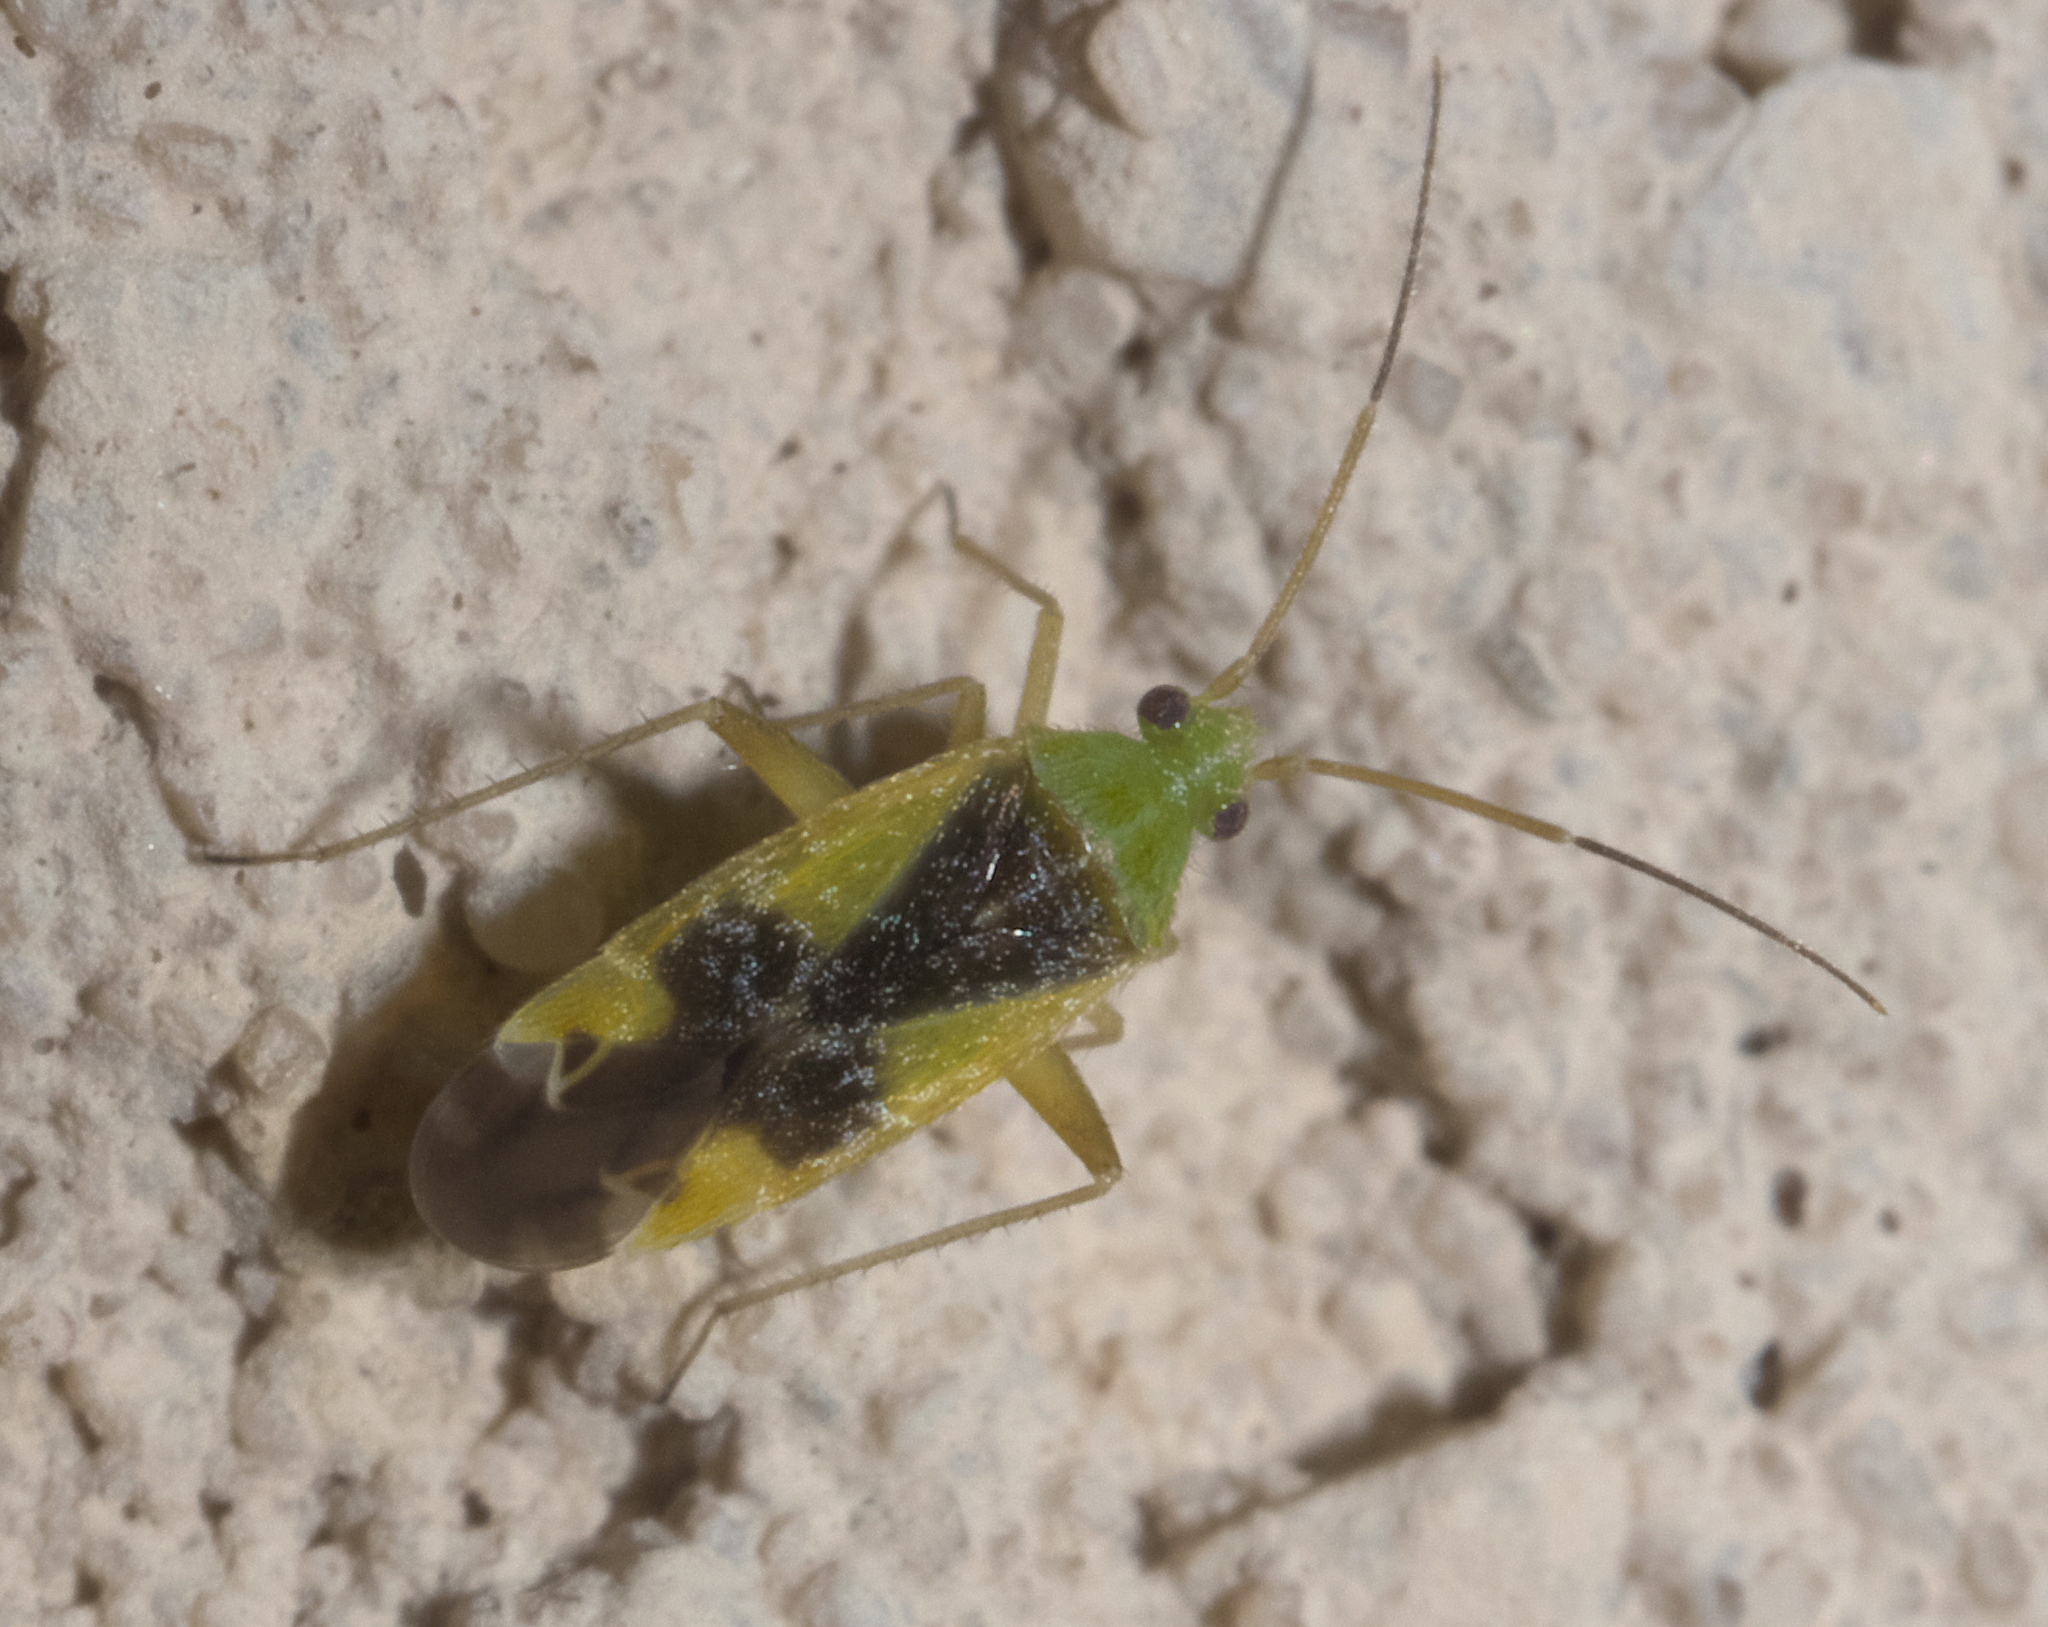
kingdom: Animalia
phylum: Arthropoda
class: Insecta
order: Hemiptera
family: Miridae
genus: Reuteroscopus
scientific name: Reuteroscopus ornatus
